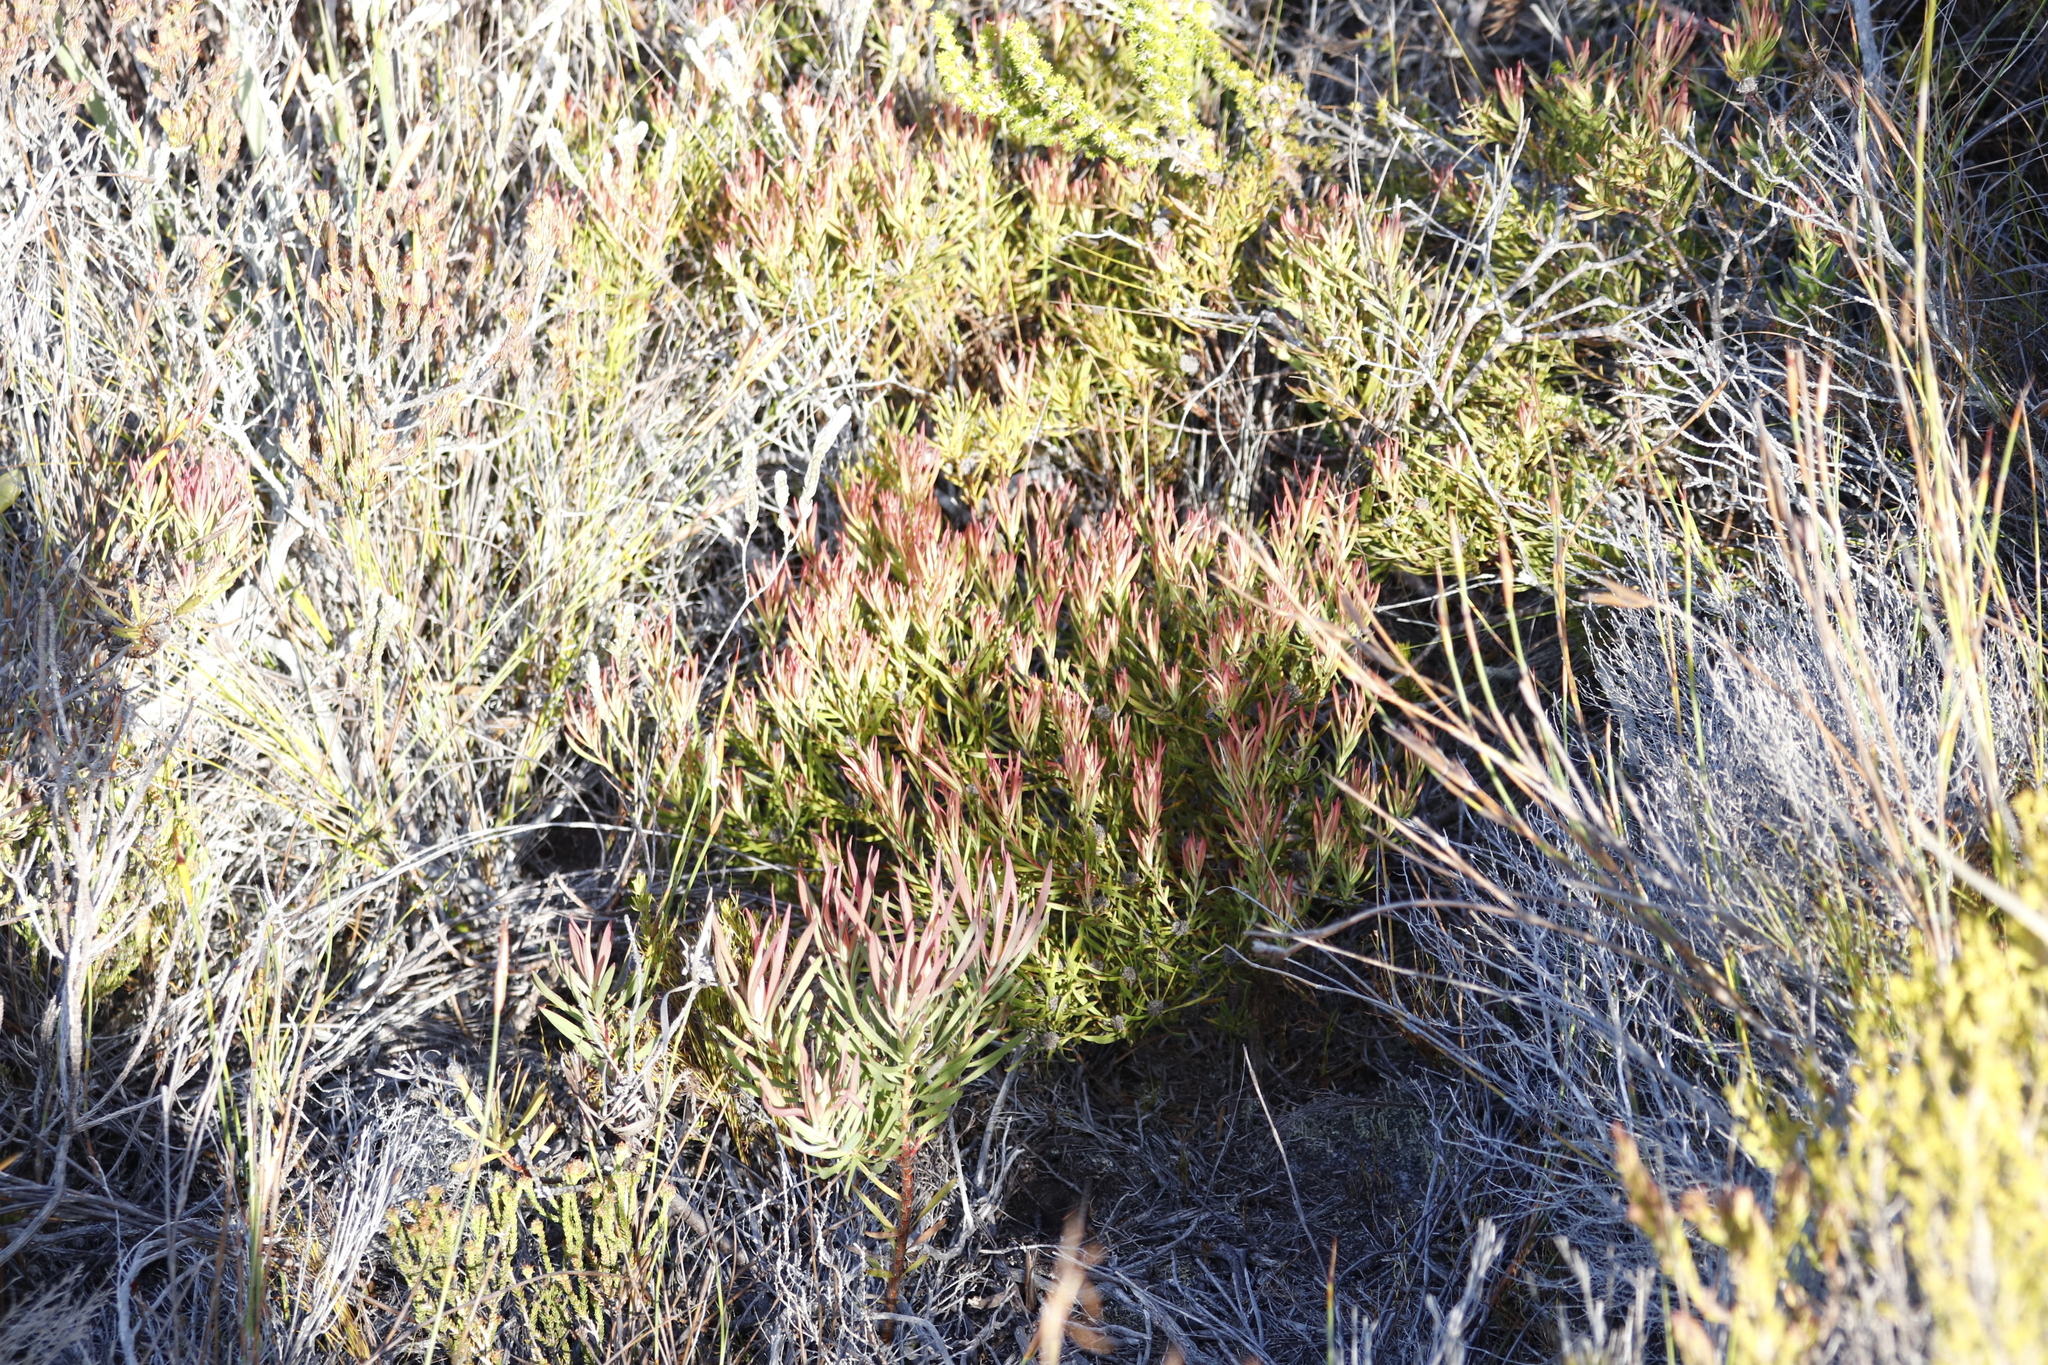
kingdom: Plantae
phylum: Tracheophyta
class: Magnoliopsida
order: Proteales
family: Proteaceae
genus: Leucadendron
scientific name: Leucadendron salignum
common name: Common sunshine conebush
